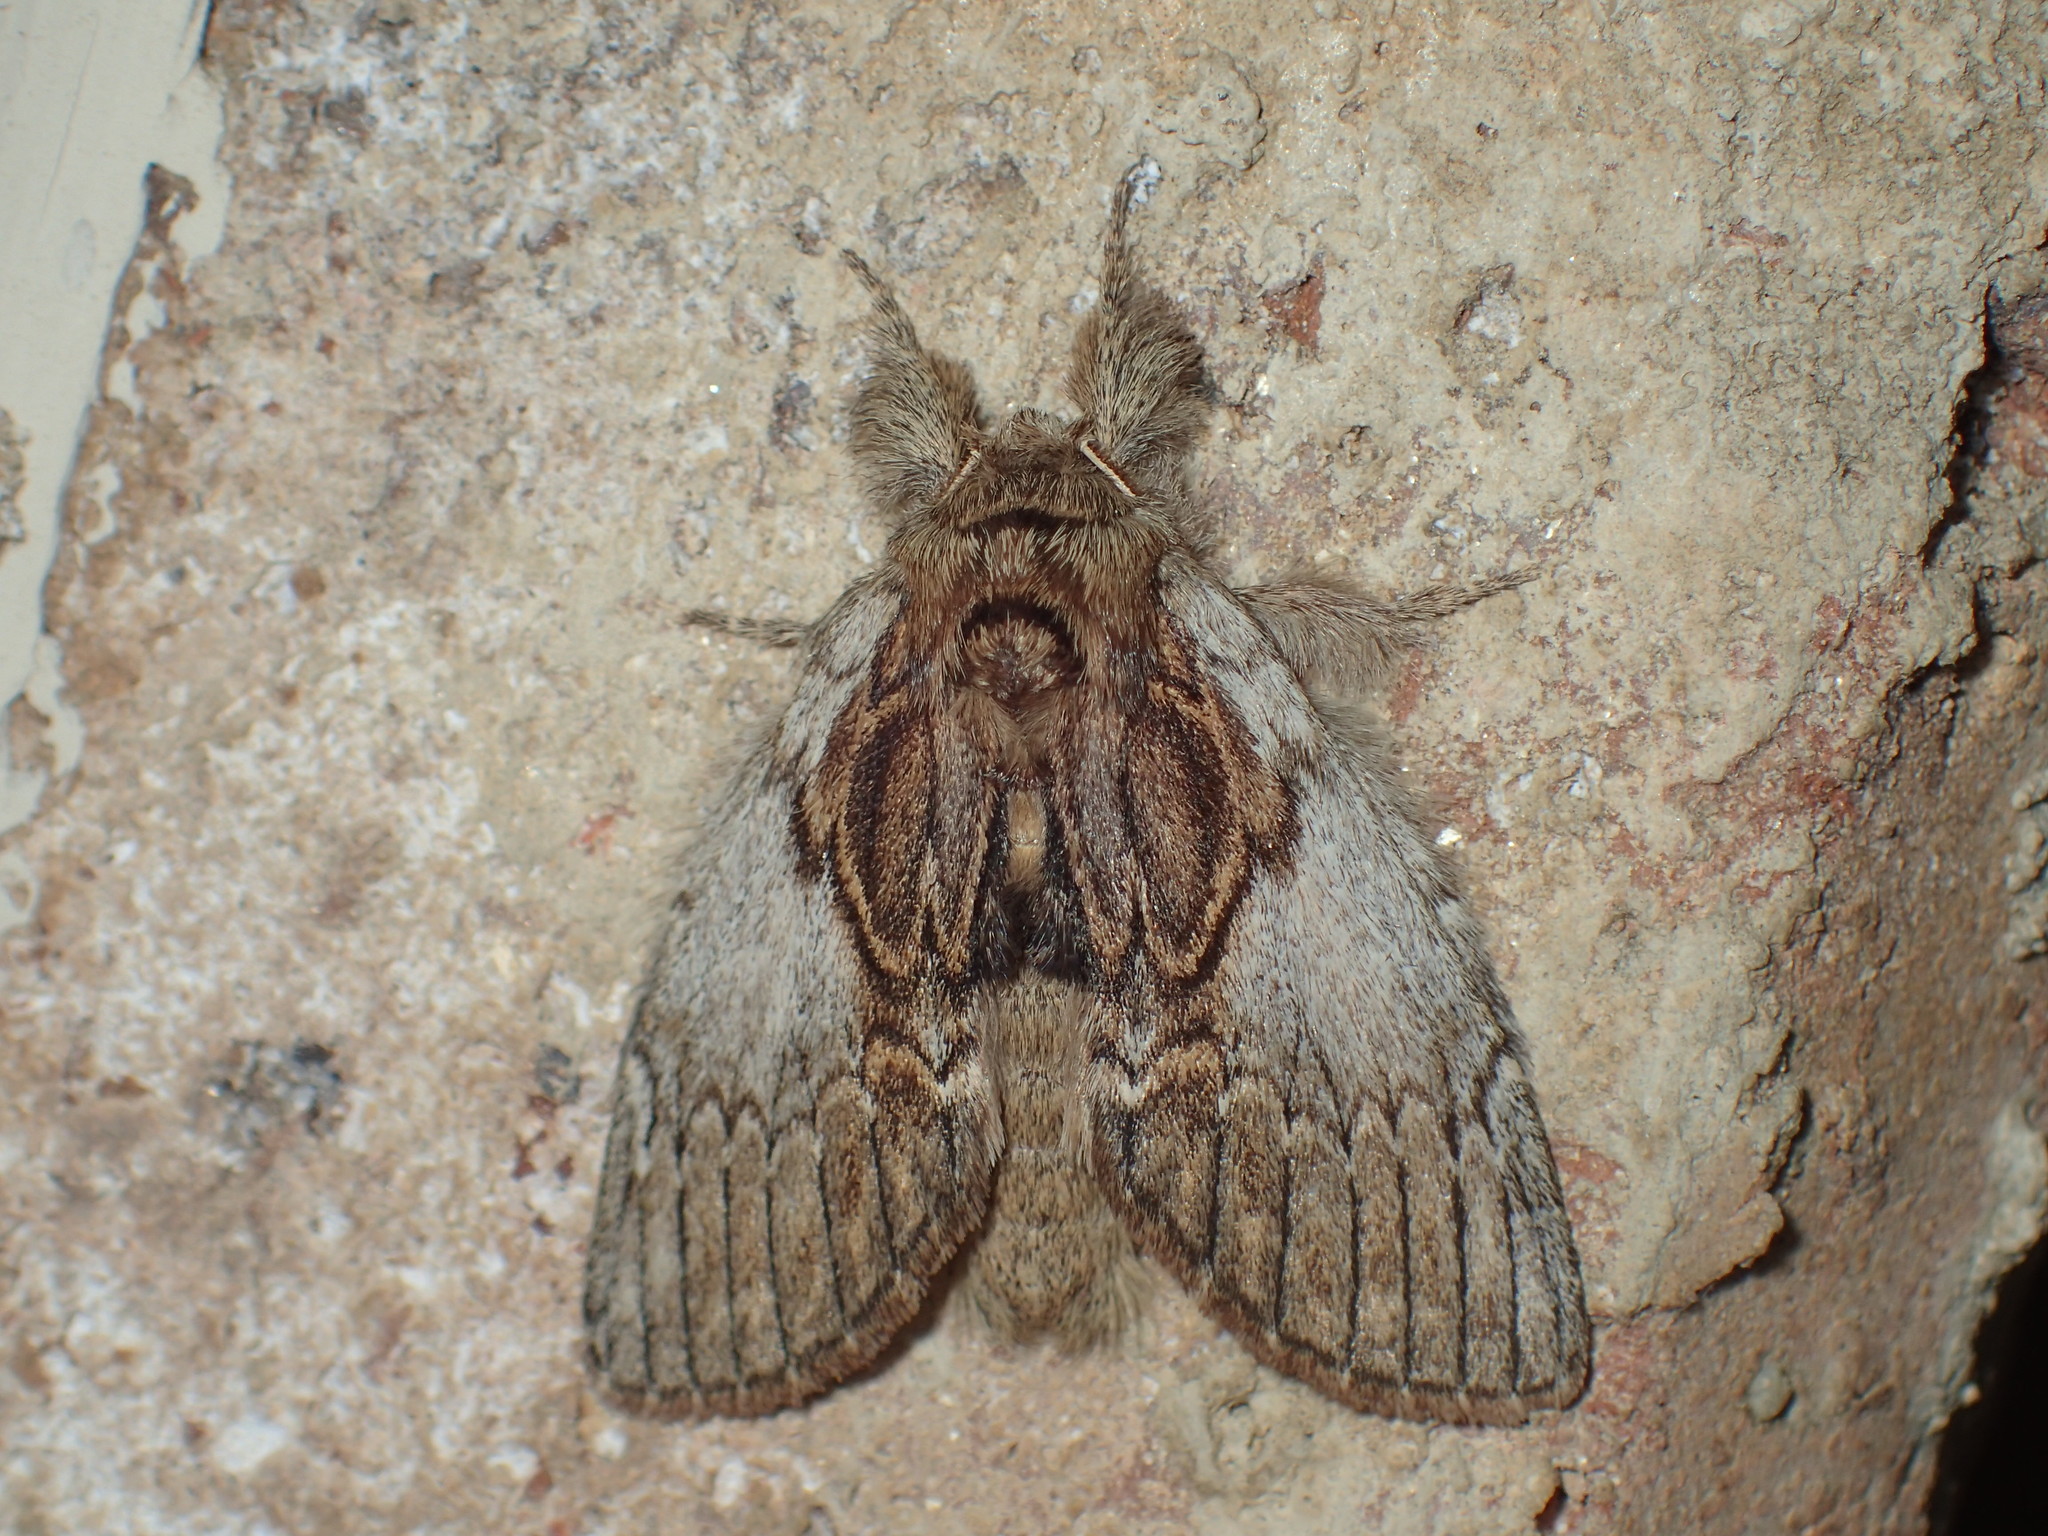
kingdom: Animalia
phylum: Arthropoda
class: Insecta
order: Lepidoptera
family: Notodontidae
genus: Peridea
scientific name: Peridea basitriens
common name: Oval-based prominent
